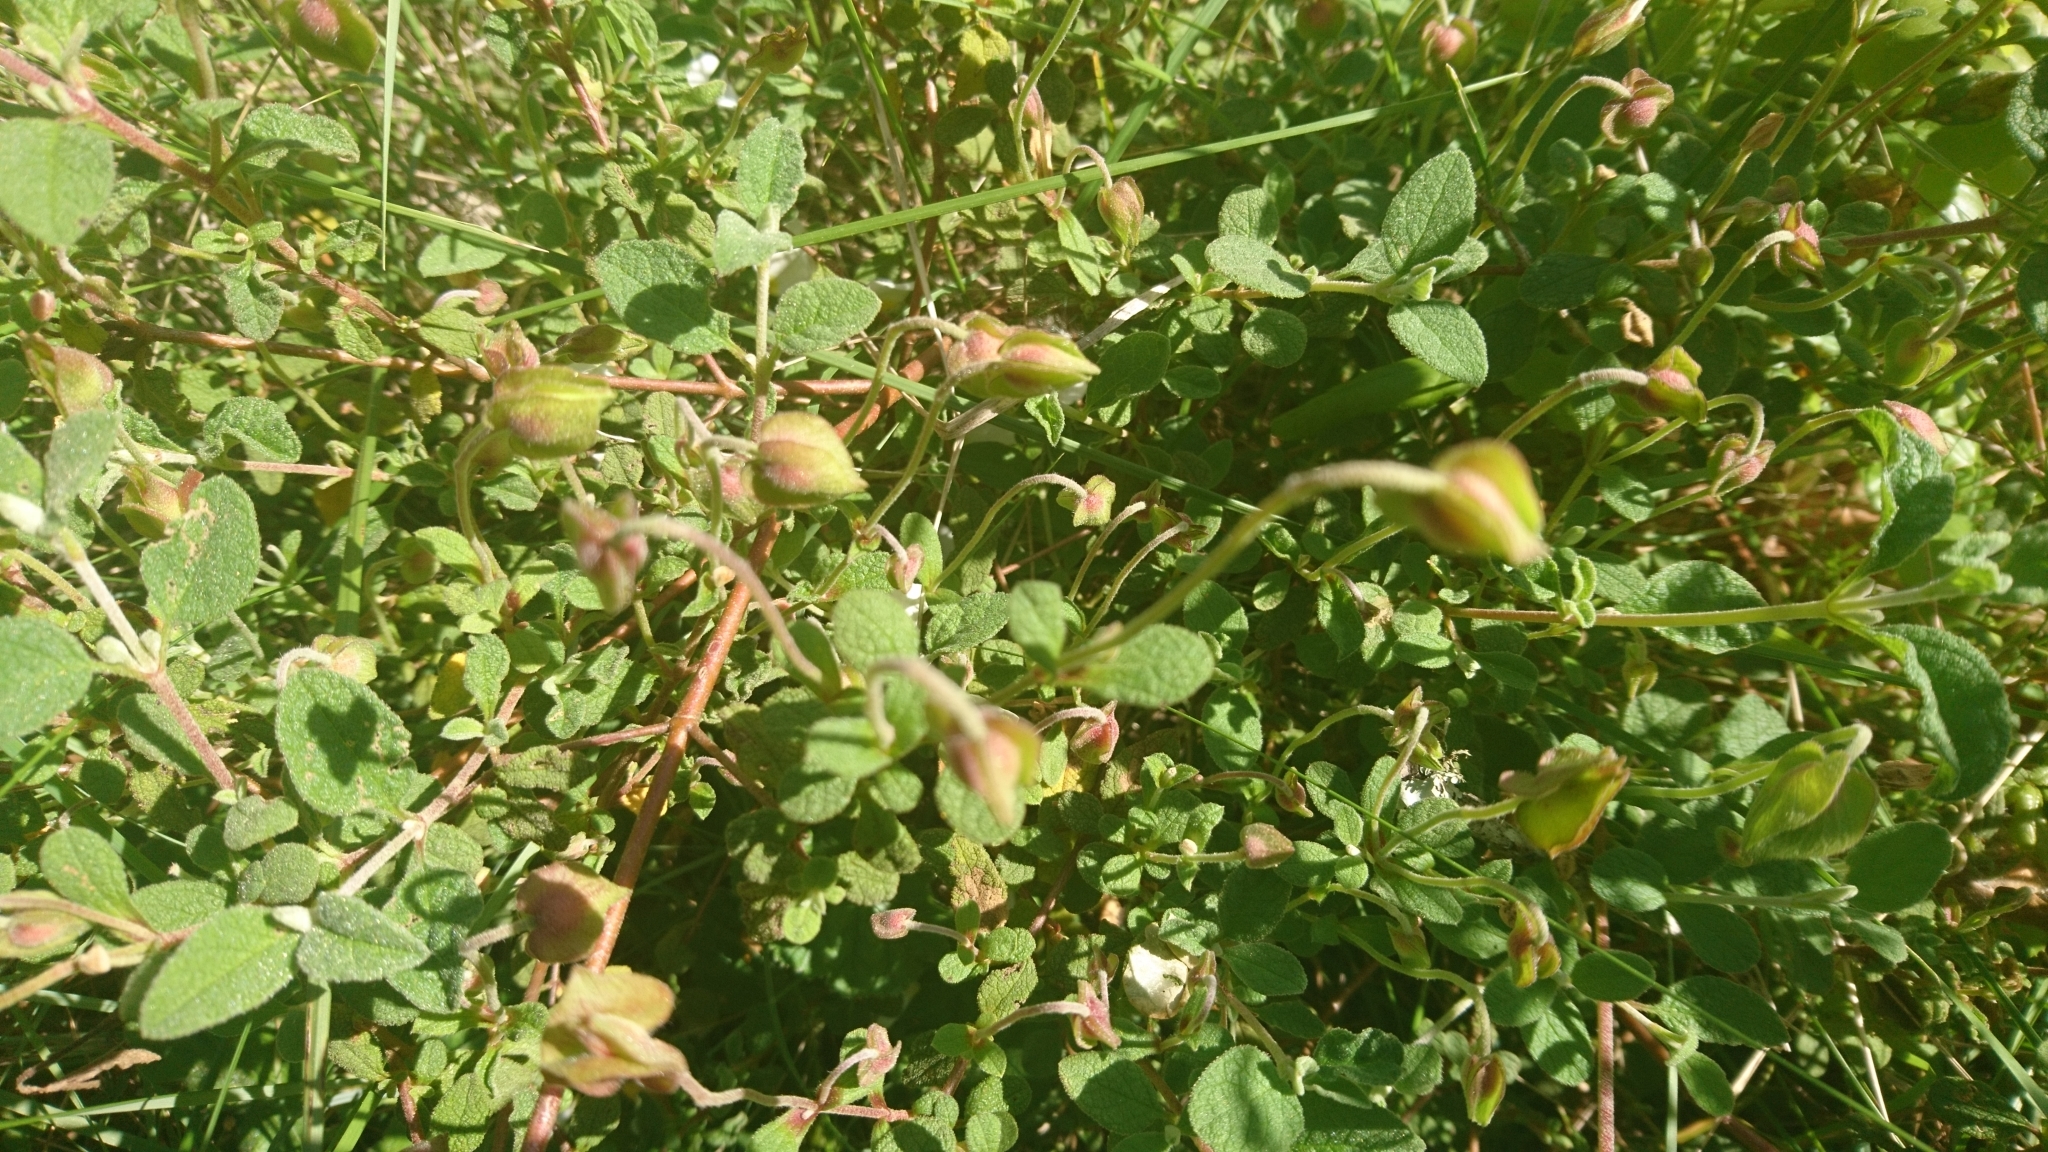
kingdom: Plantae
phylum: Tracheophyta
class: Magnoliopsida
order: Malvales
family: Cistaceae
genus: Cistus
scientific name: Cistus salviifolius
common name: Salvia cistus
